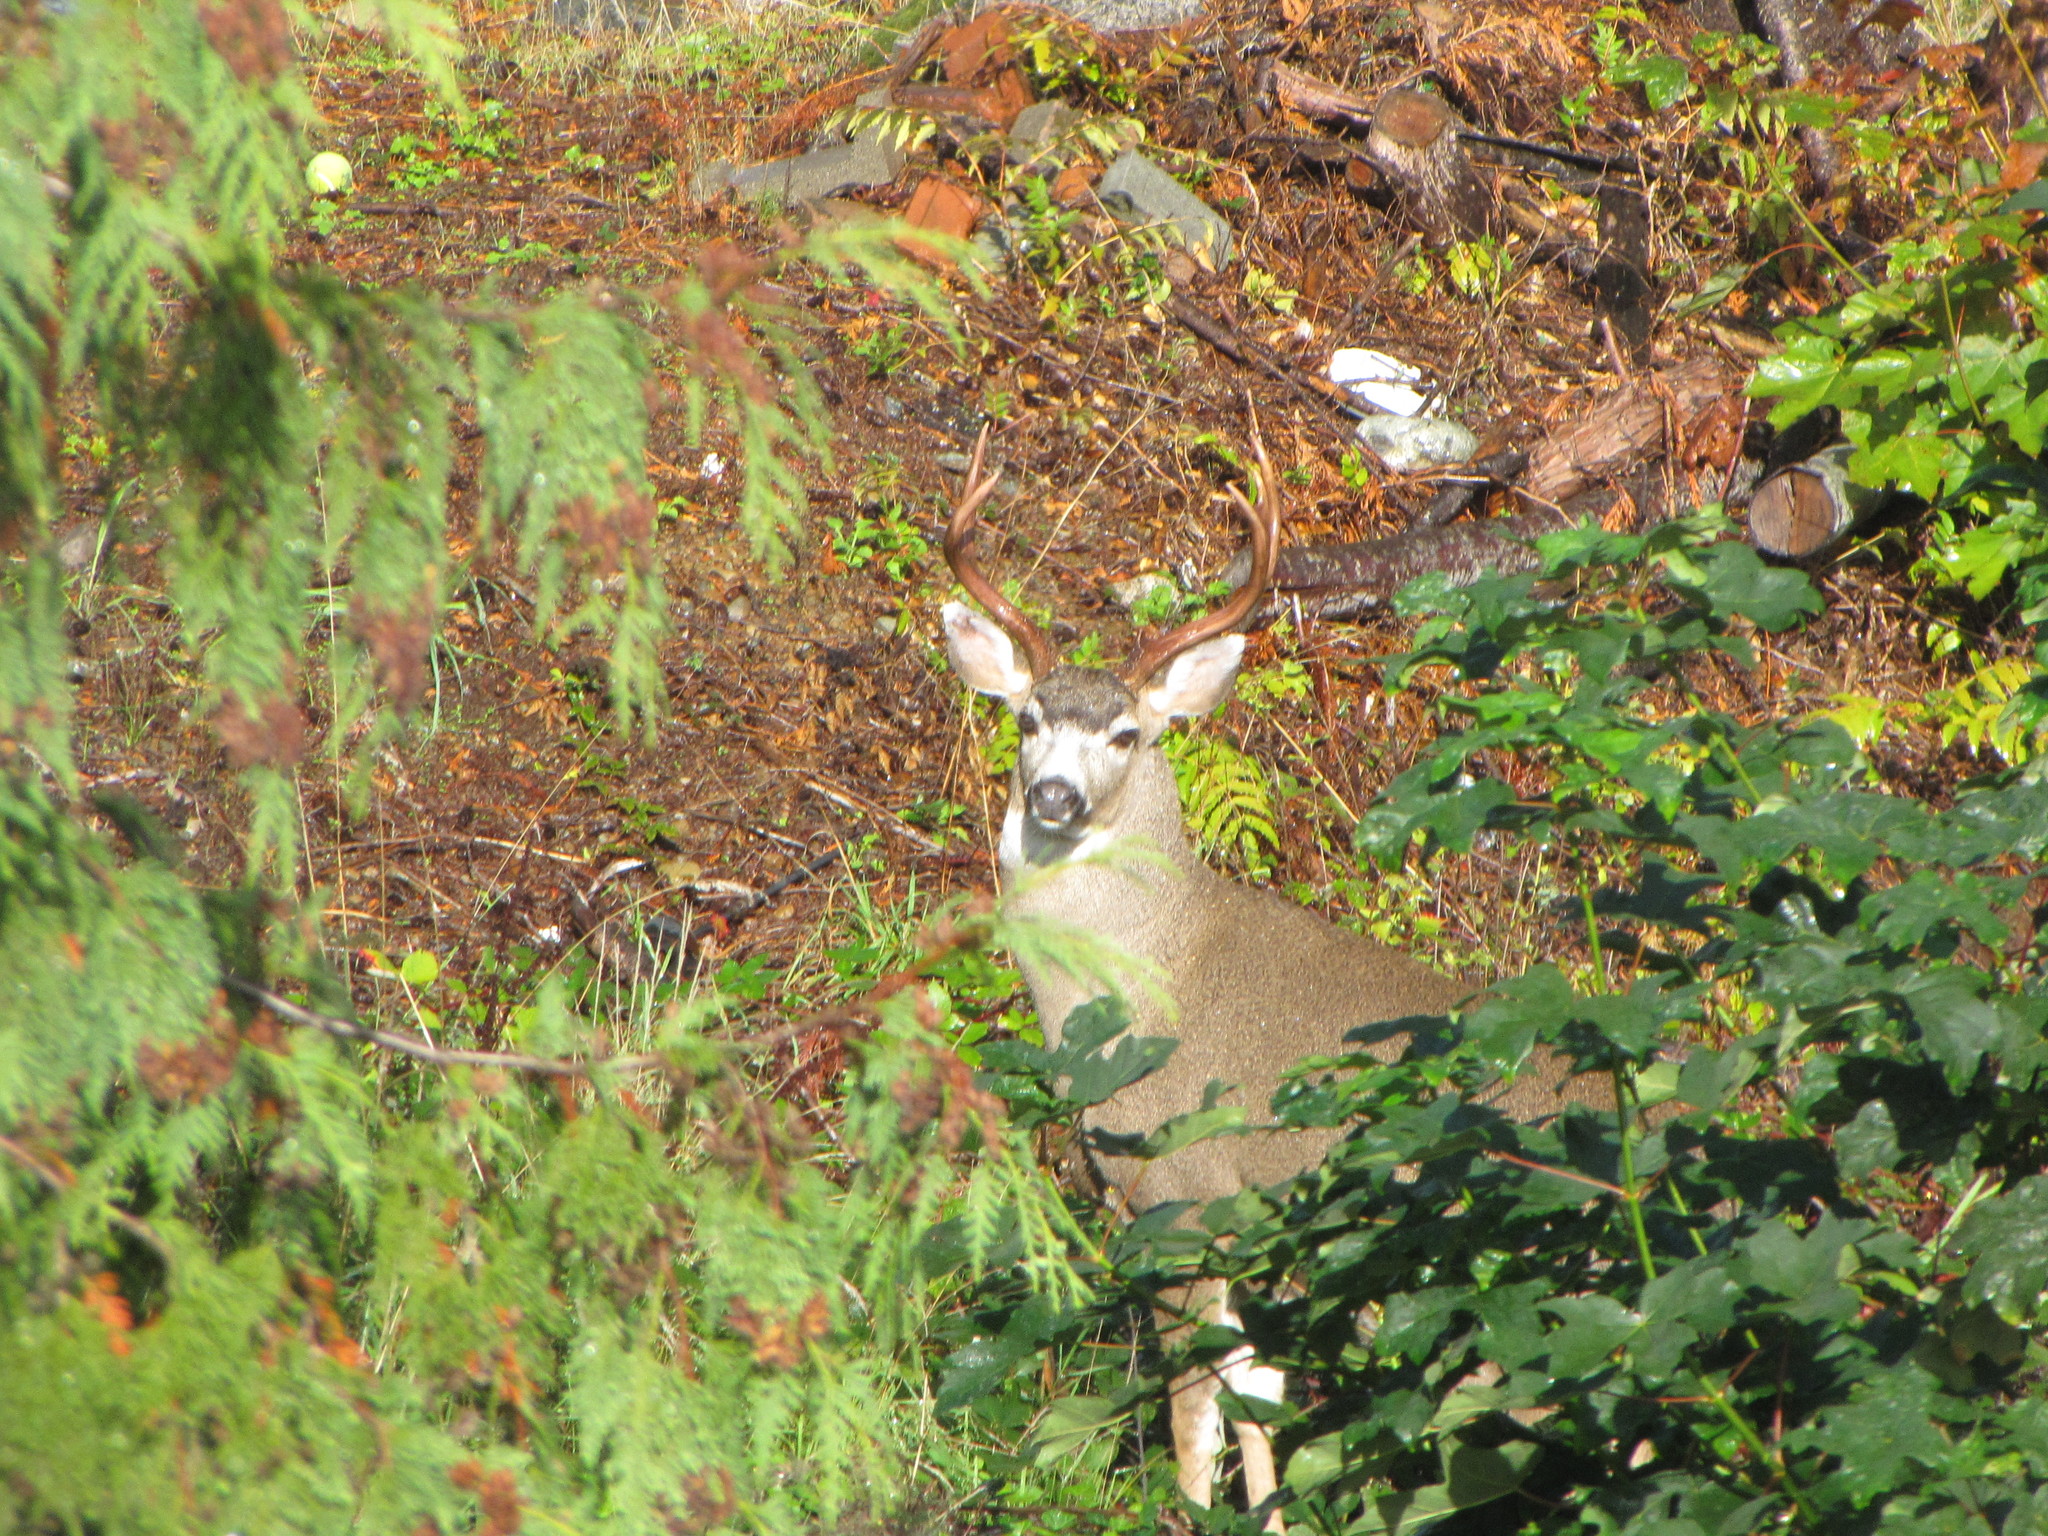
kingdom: Animalia
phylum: Chordata
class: Mammalia
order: Artiodactyla
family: Cervidae
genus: Odocoileus
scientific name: Odocoileus hemionus
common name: Mule deer
